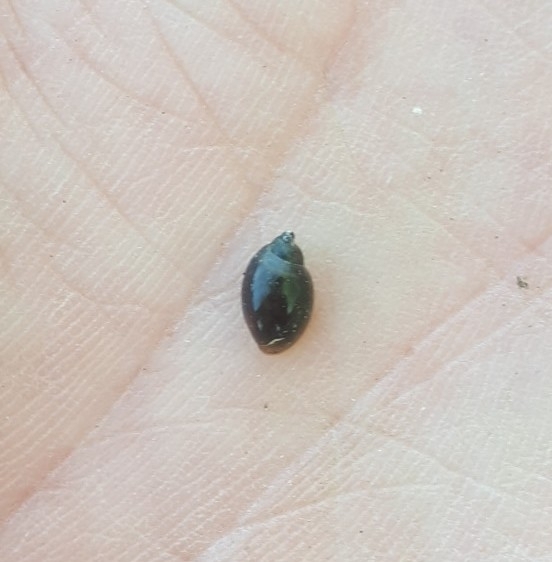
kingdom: Animalia
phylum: Mollusca
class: Gastropoda
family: Physidae
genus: Physella
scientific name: Physella acuta
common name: European physa
